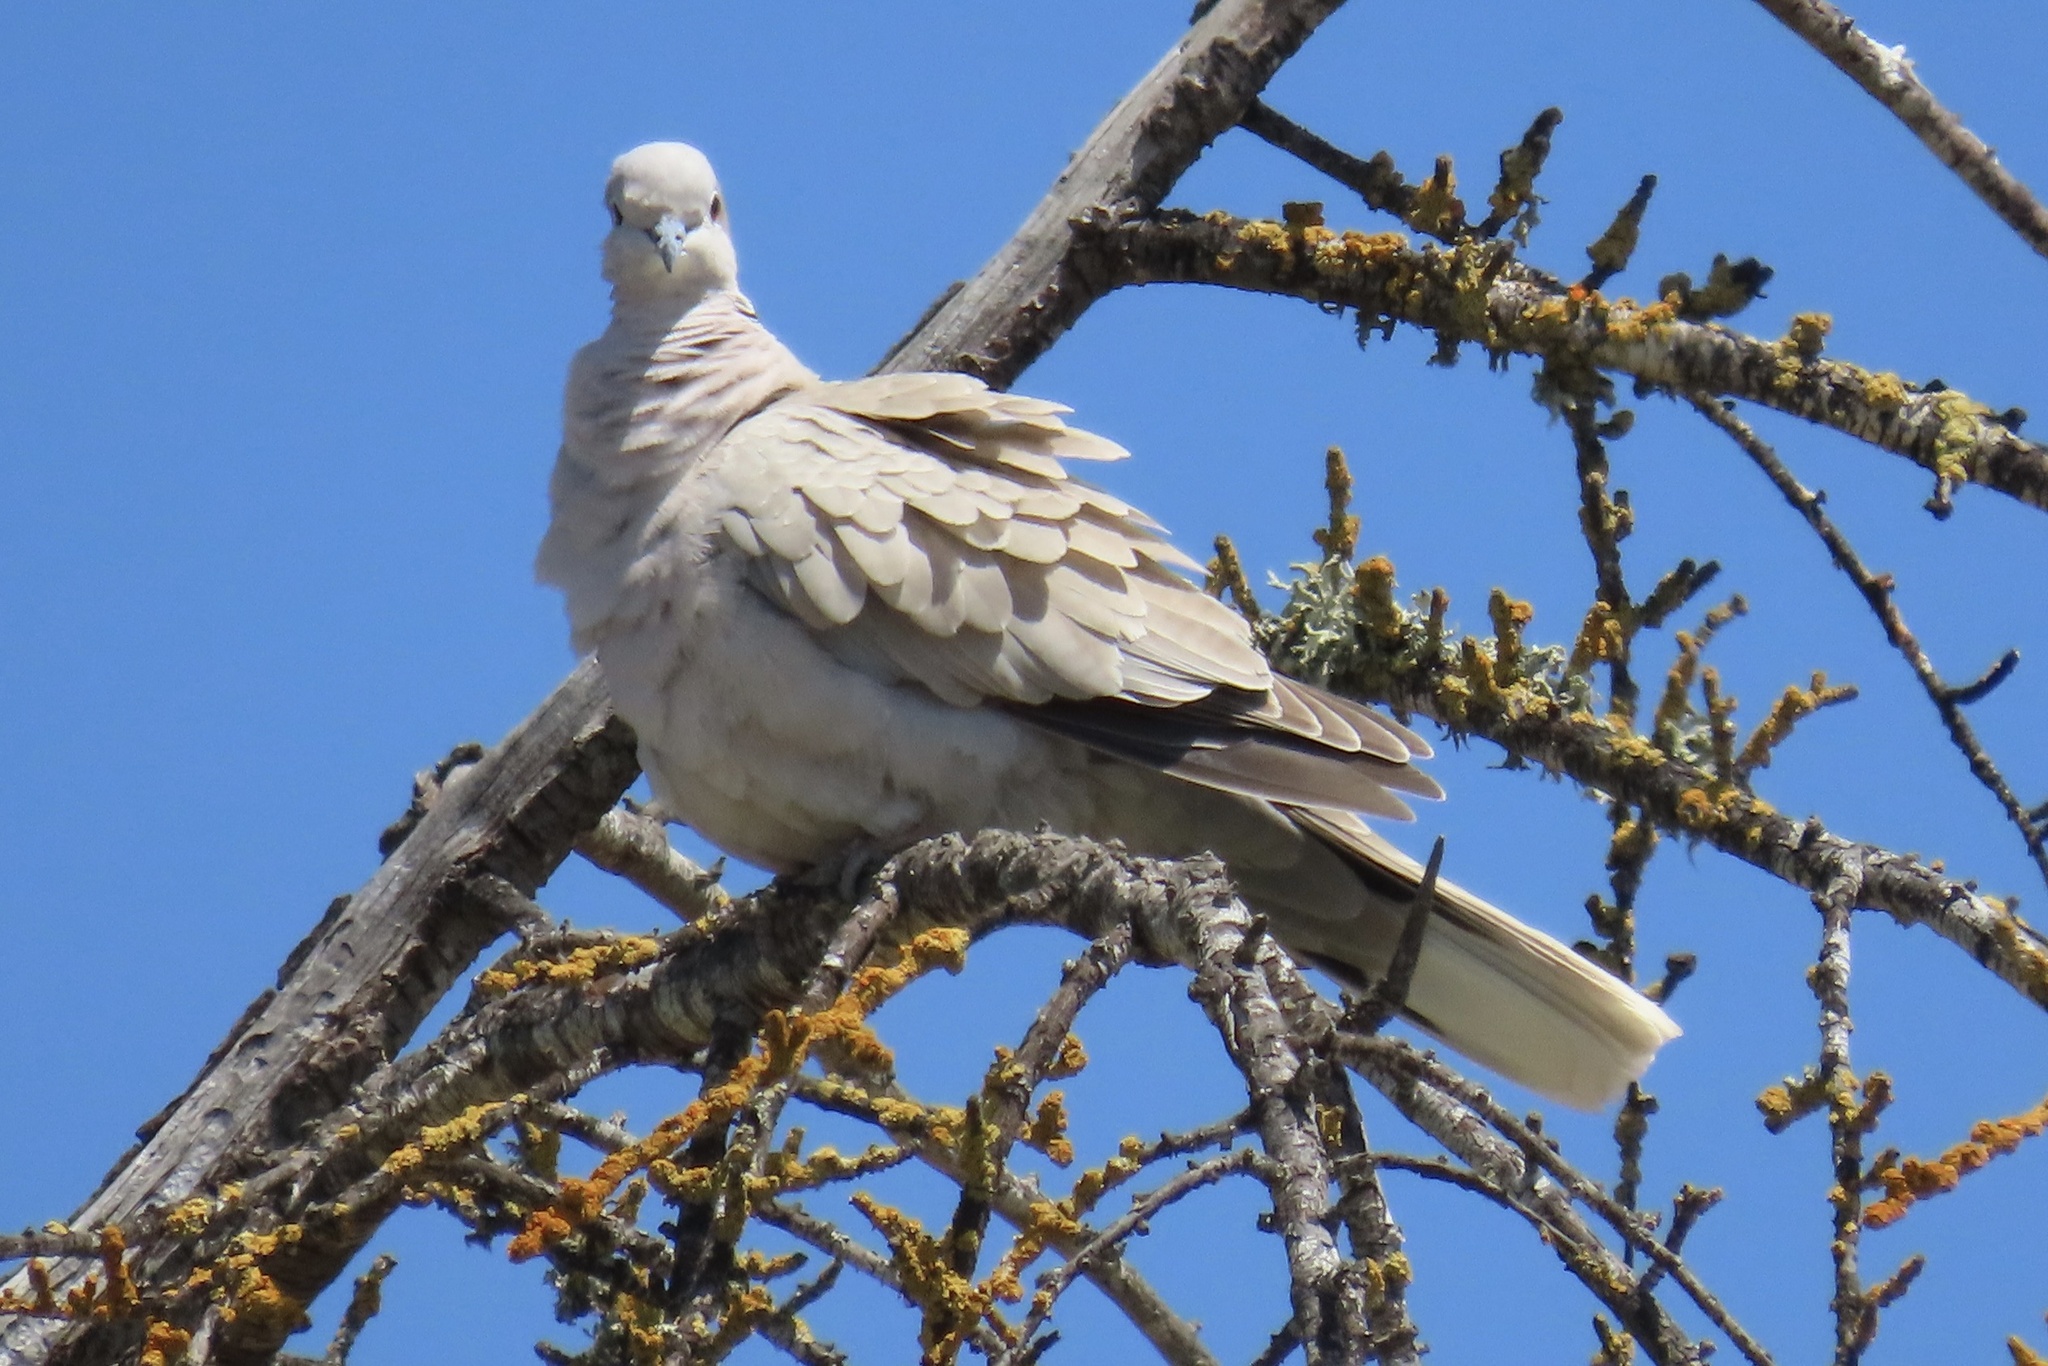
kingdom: Animalia
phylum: Chordata
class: Aves
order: Columbiformes
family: Columbidae
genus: Streptopelia
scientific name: Streptopelia decaocto
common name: Eurasian collared dove
